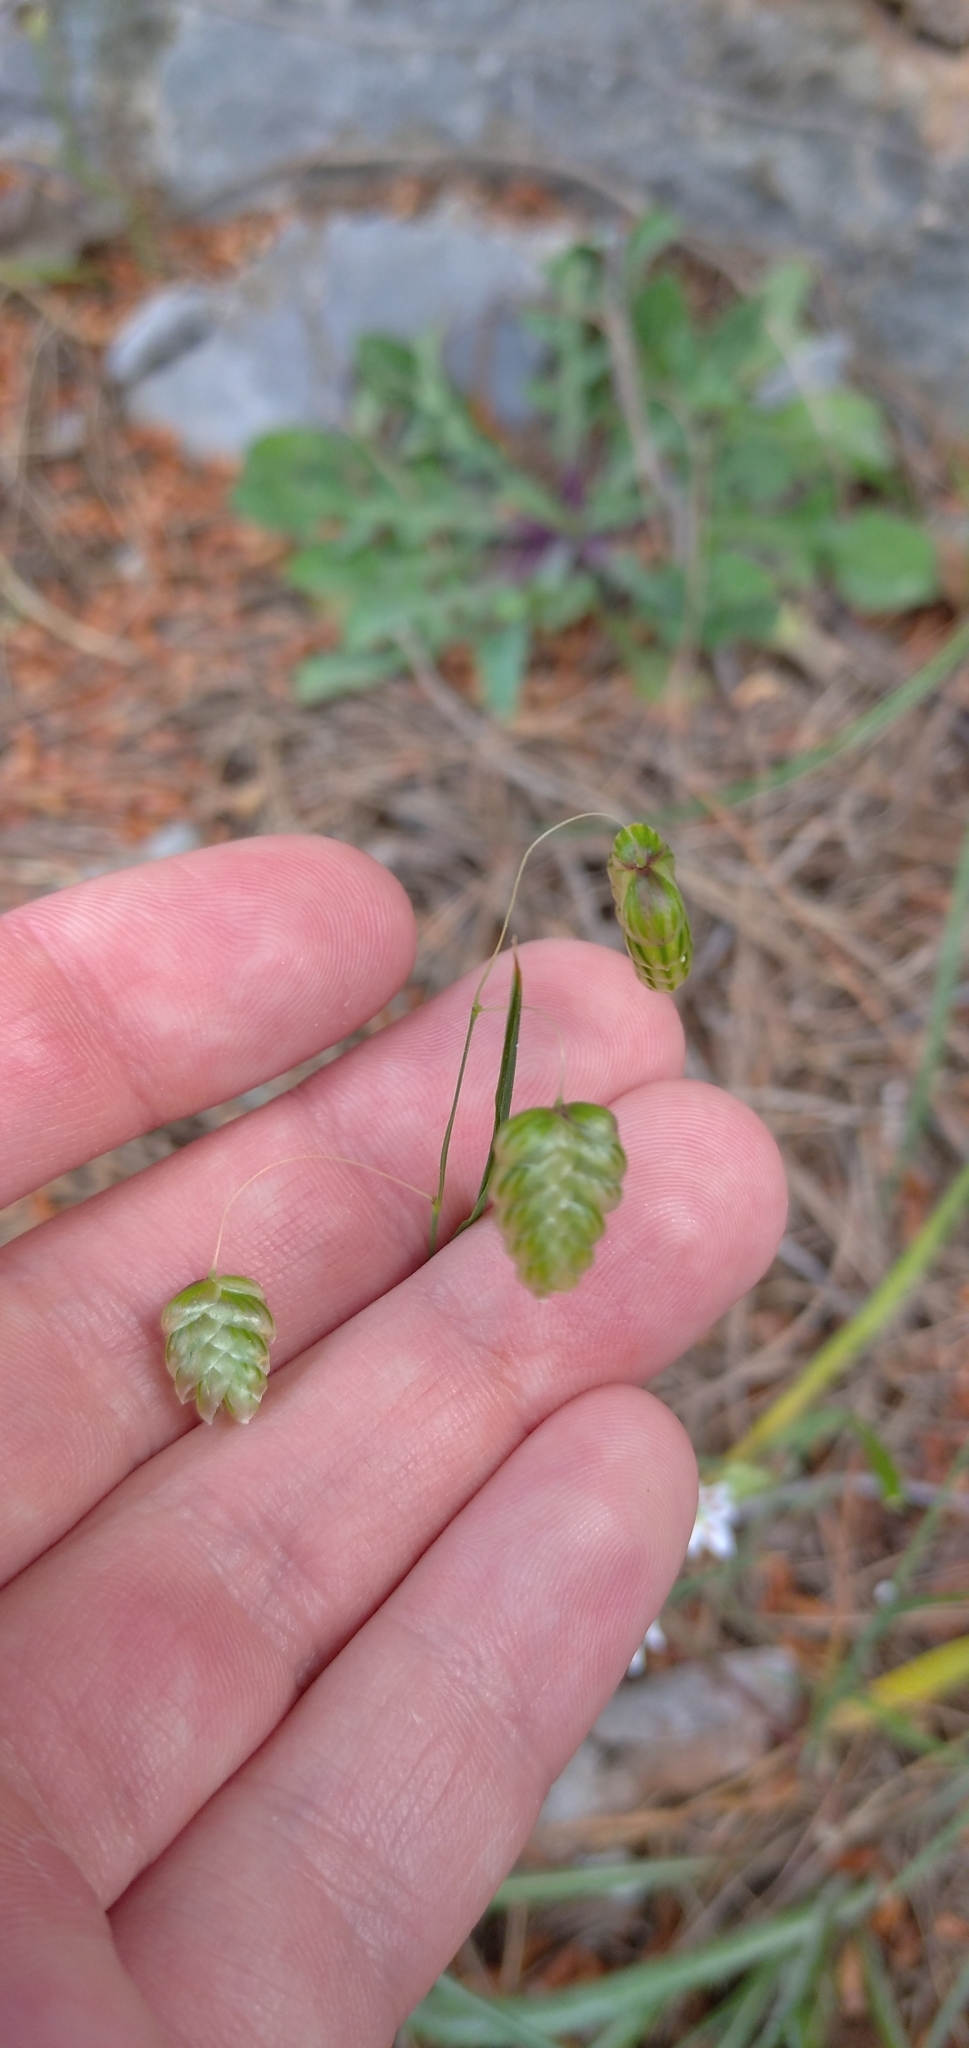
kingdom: Plantae
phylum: Tracheophyta
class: Liliopsida
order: Poales
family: Poaceae
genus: Briza
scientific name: Briza maxima
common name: Big quakinggrass
